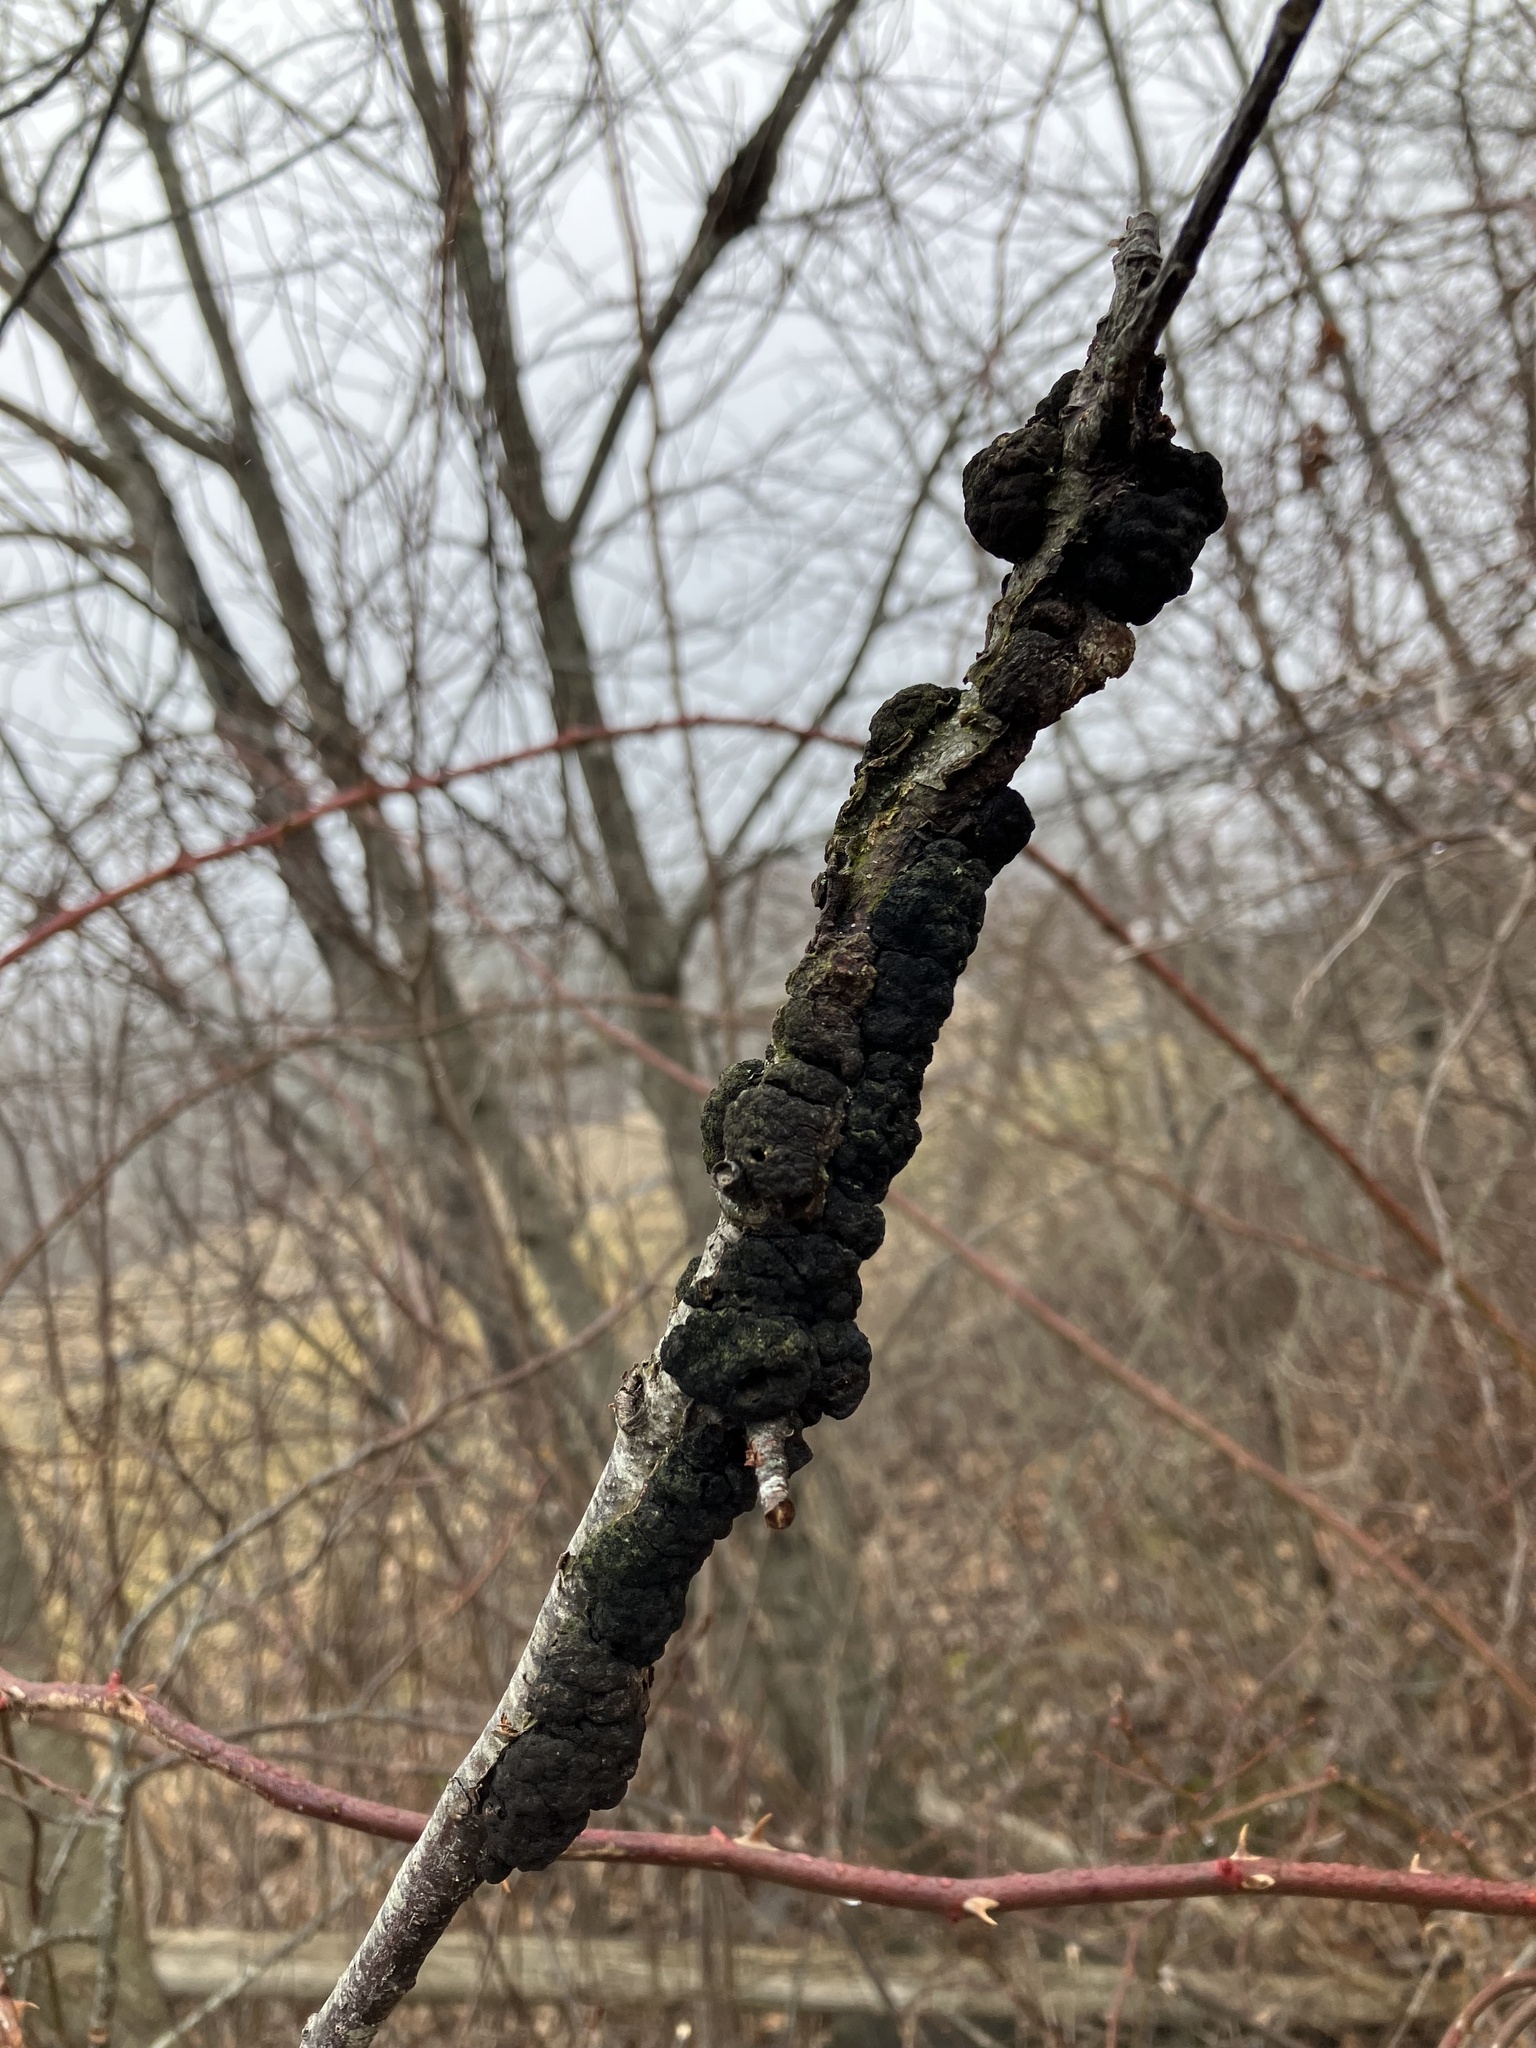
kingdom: Fungi
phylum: Ascomycota
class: Dothideomycetes
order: Venturiales
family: Venturiaceae
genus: Apiosporina
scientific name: Apiosporina morbosa
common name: Black knot
